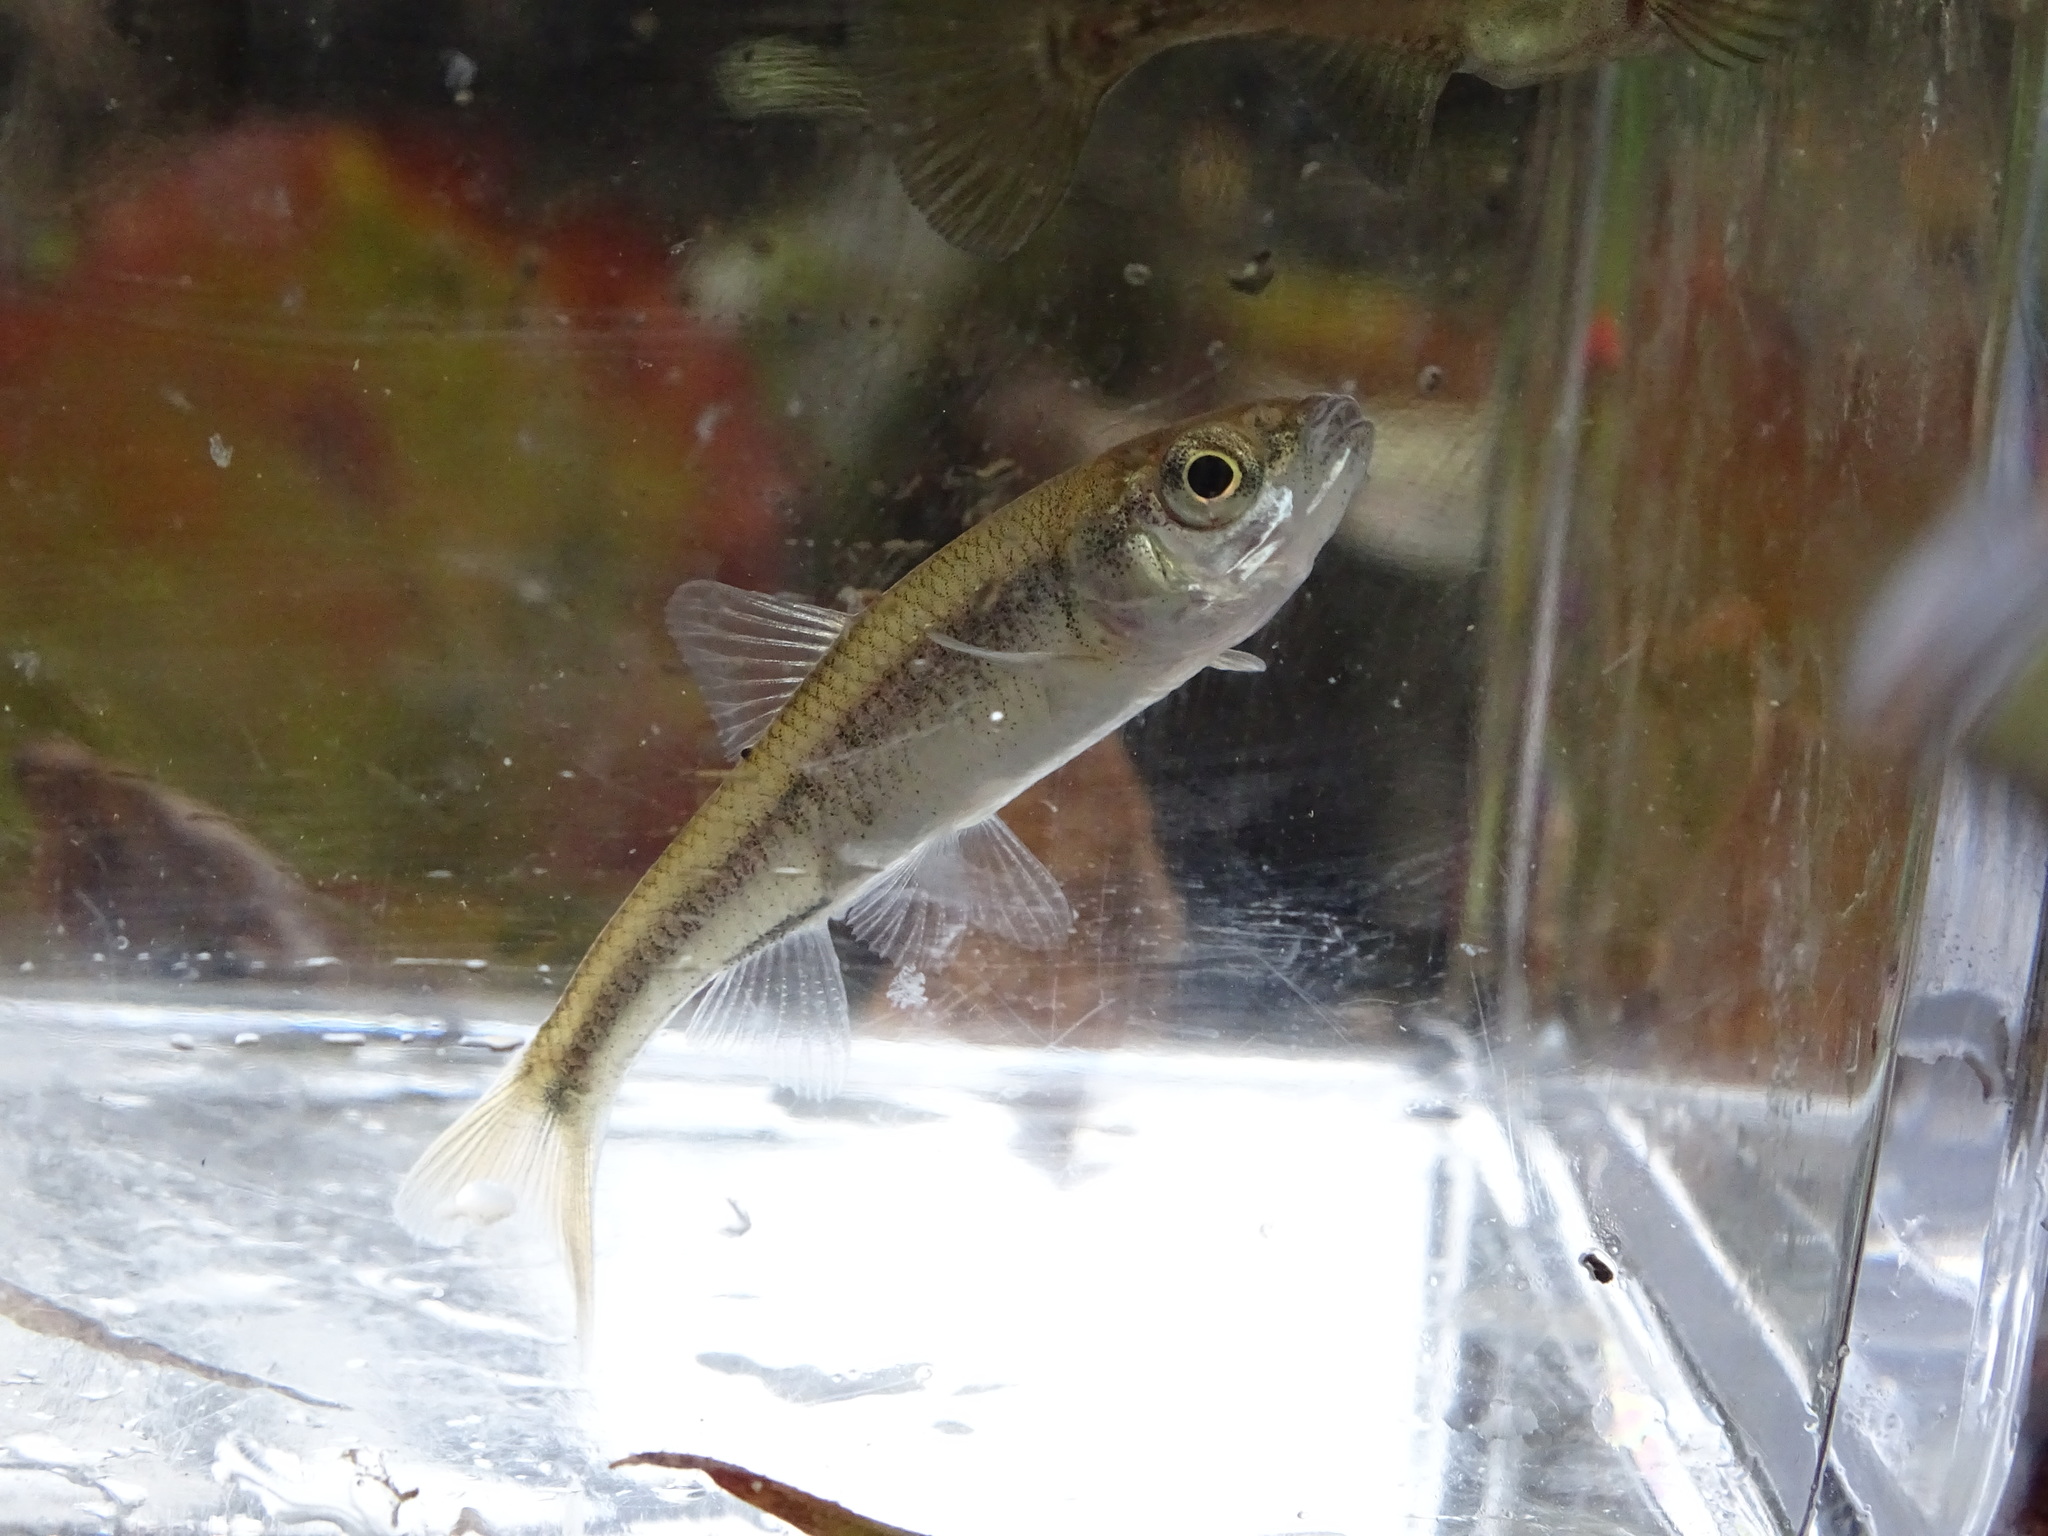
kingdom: Animalia
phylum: Chordata
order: Cypriniformes
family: Cyprinidae
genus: Luxilus
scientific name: Luxilus cornutus
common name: Common shiner
